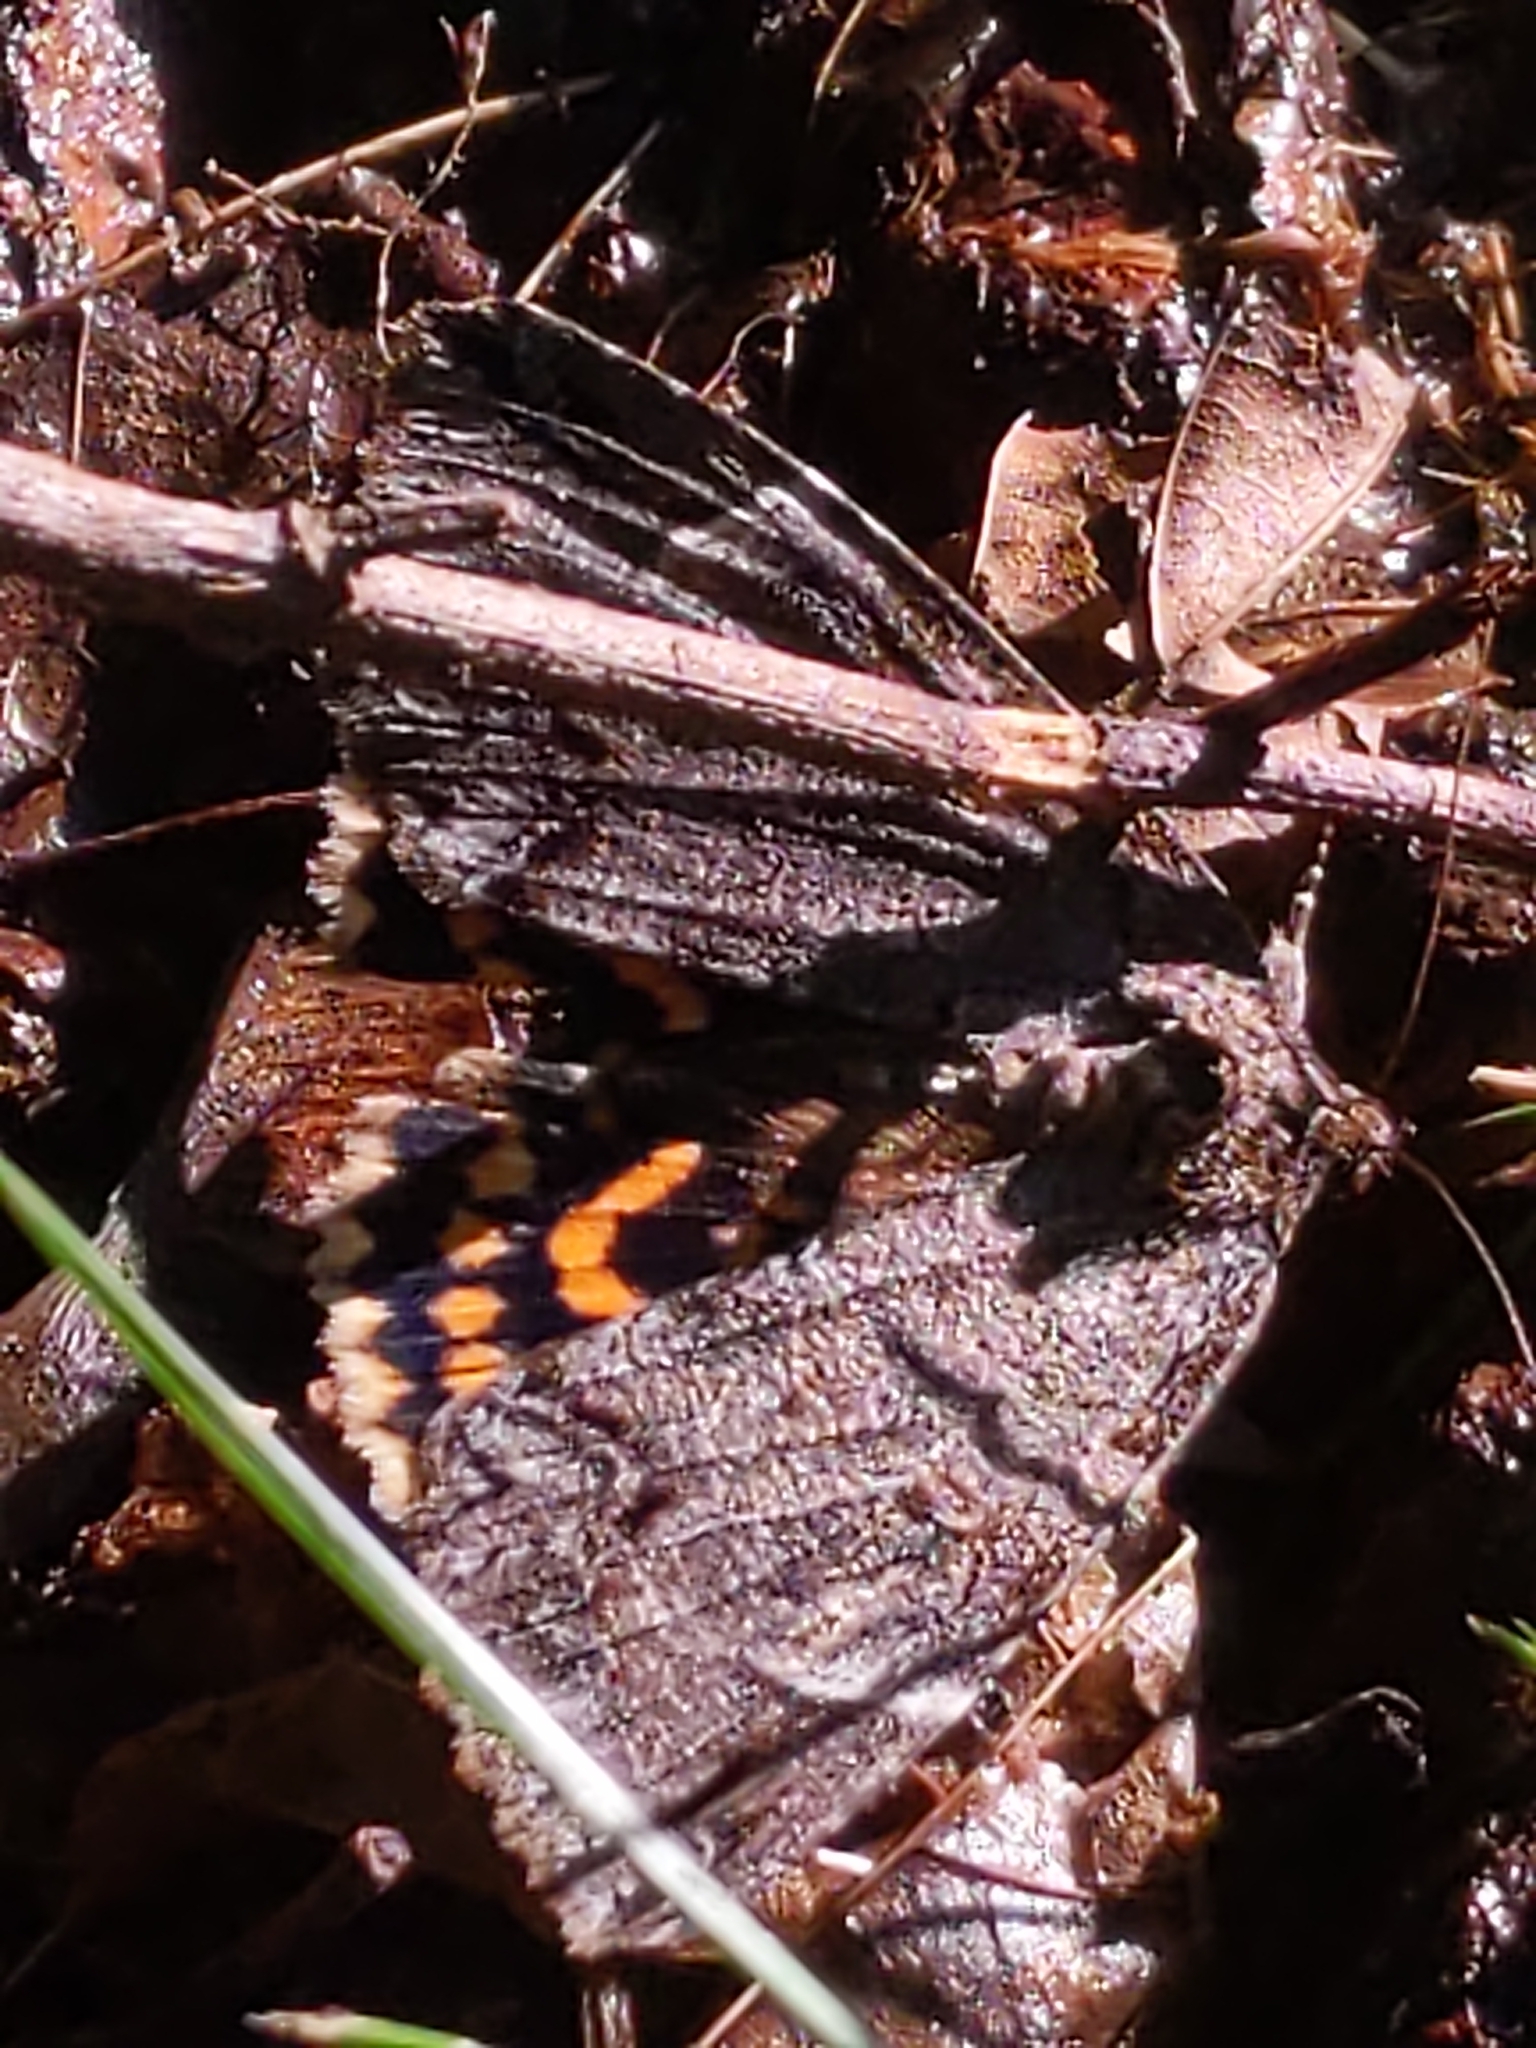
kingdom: Animalia
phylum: Arthropoda
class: Insecta
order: Lepidoptera
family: Erebidae
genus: Euparthenos
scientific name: Euparthenos nubilis
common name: Locust underwing
